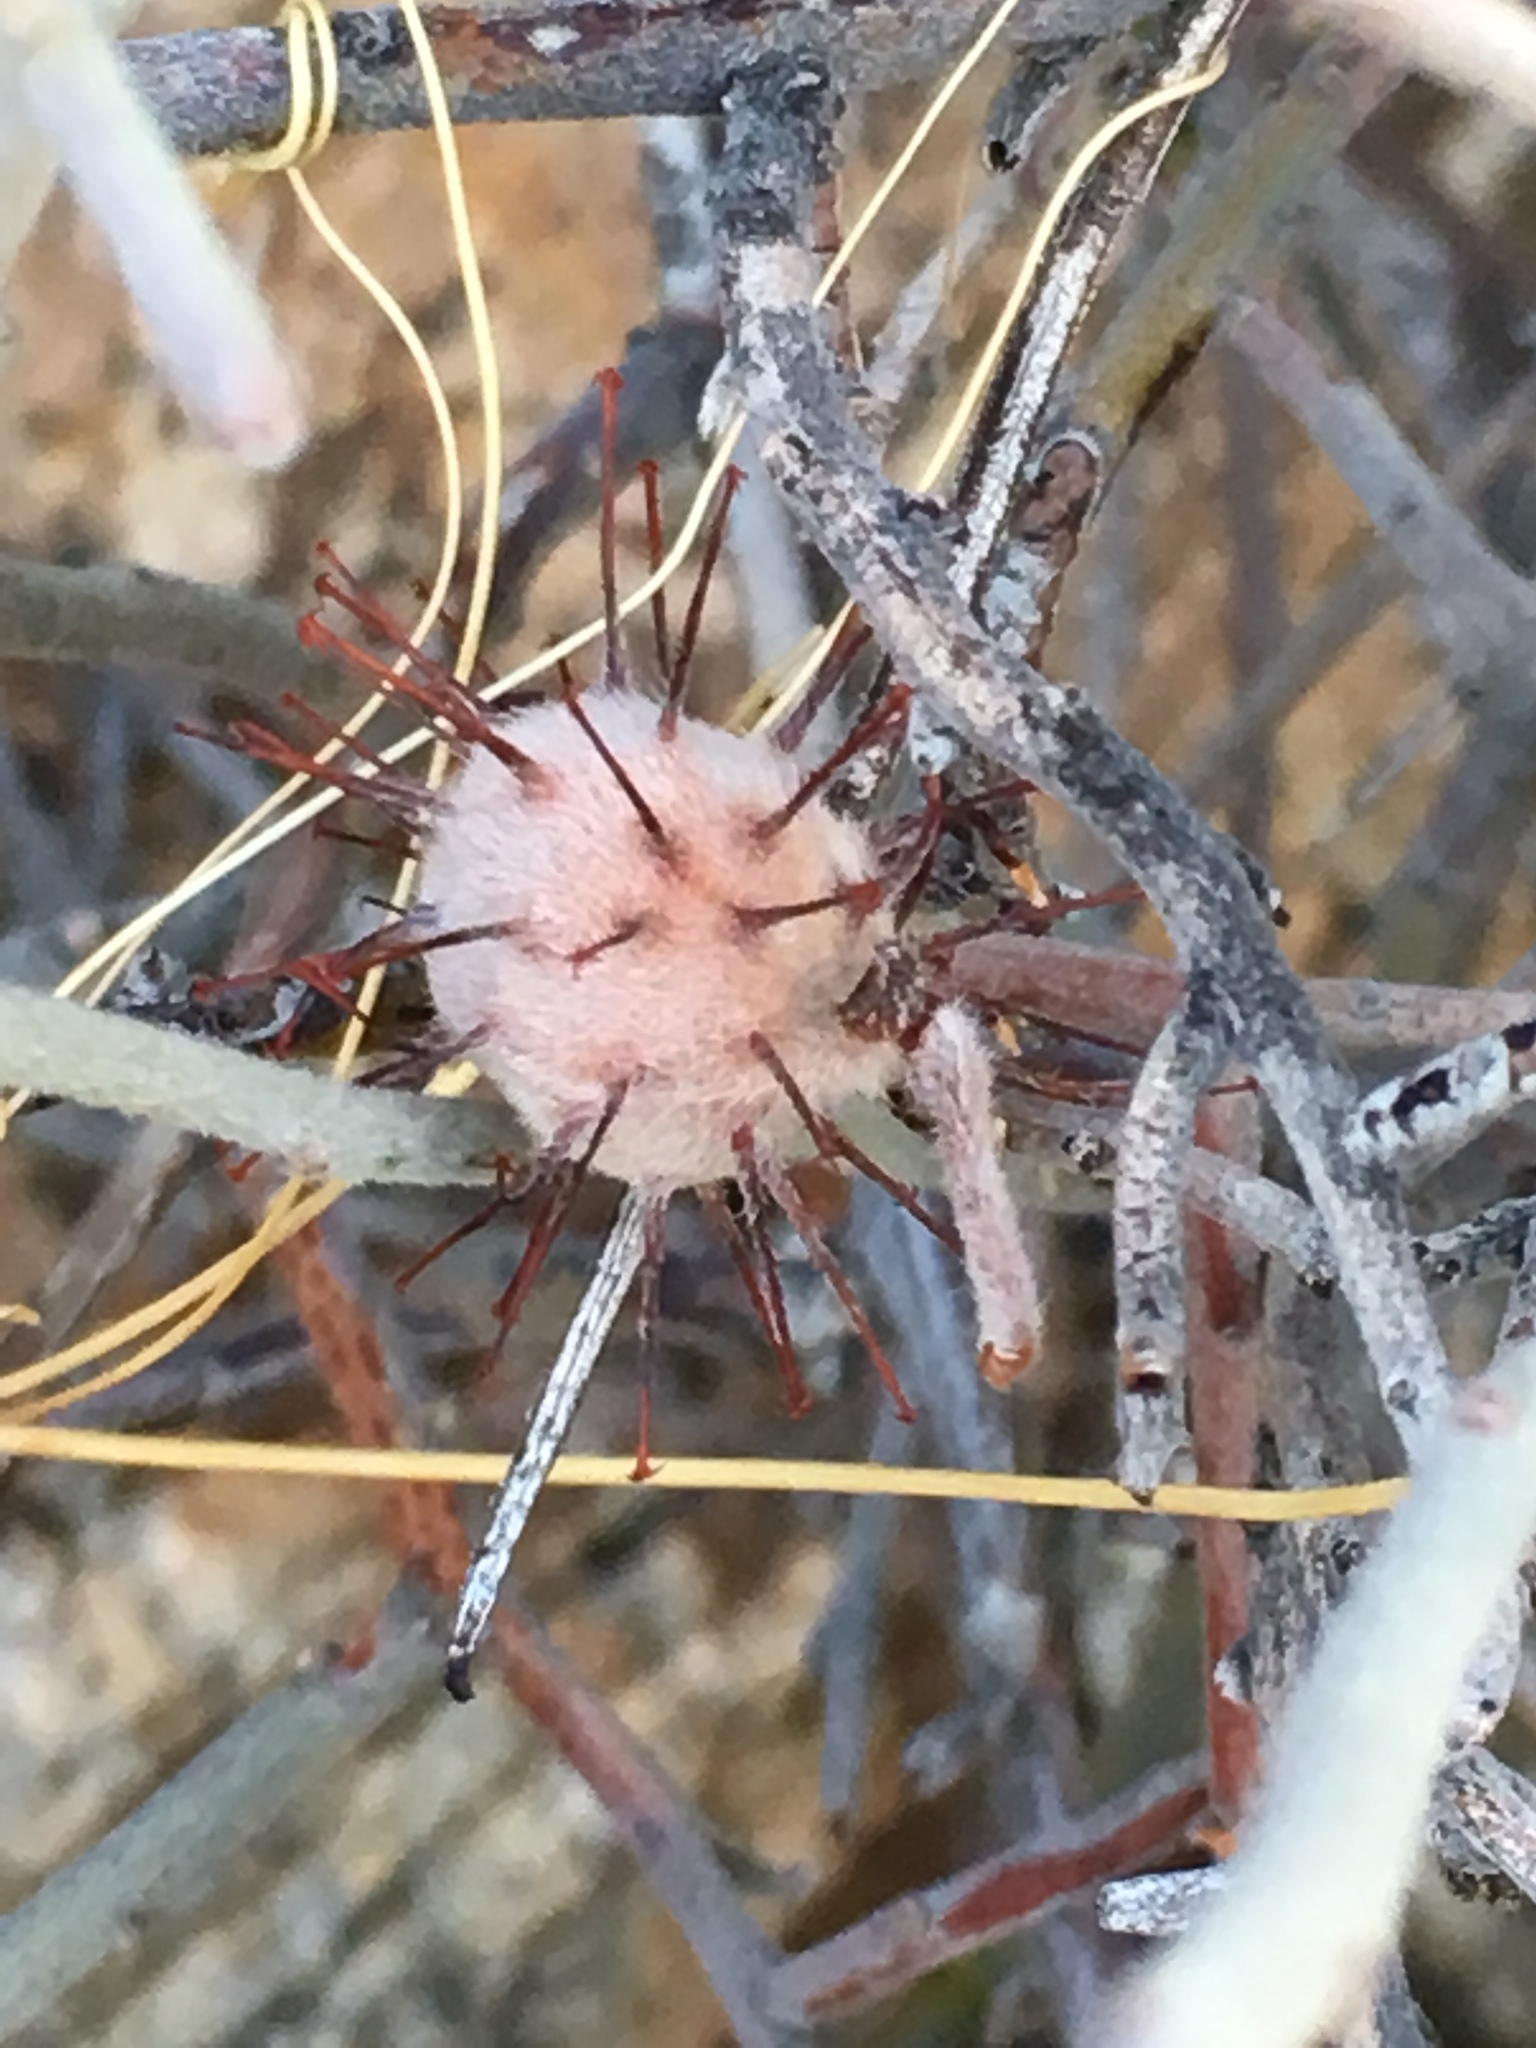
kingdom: Plantae
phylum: Tracheophyta
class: Magnoliopsida
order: Zygophyllales
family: Krameriaceae
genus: Krameria
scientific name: Krameria bicolor
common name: White ratany
